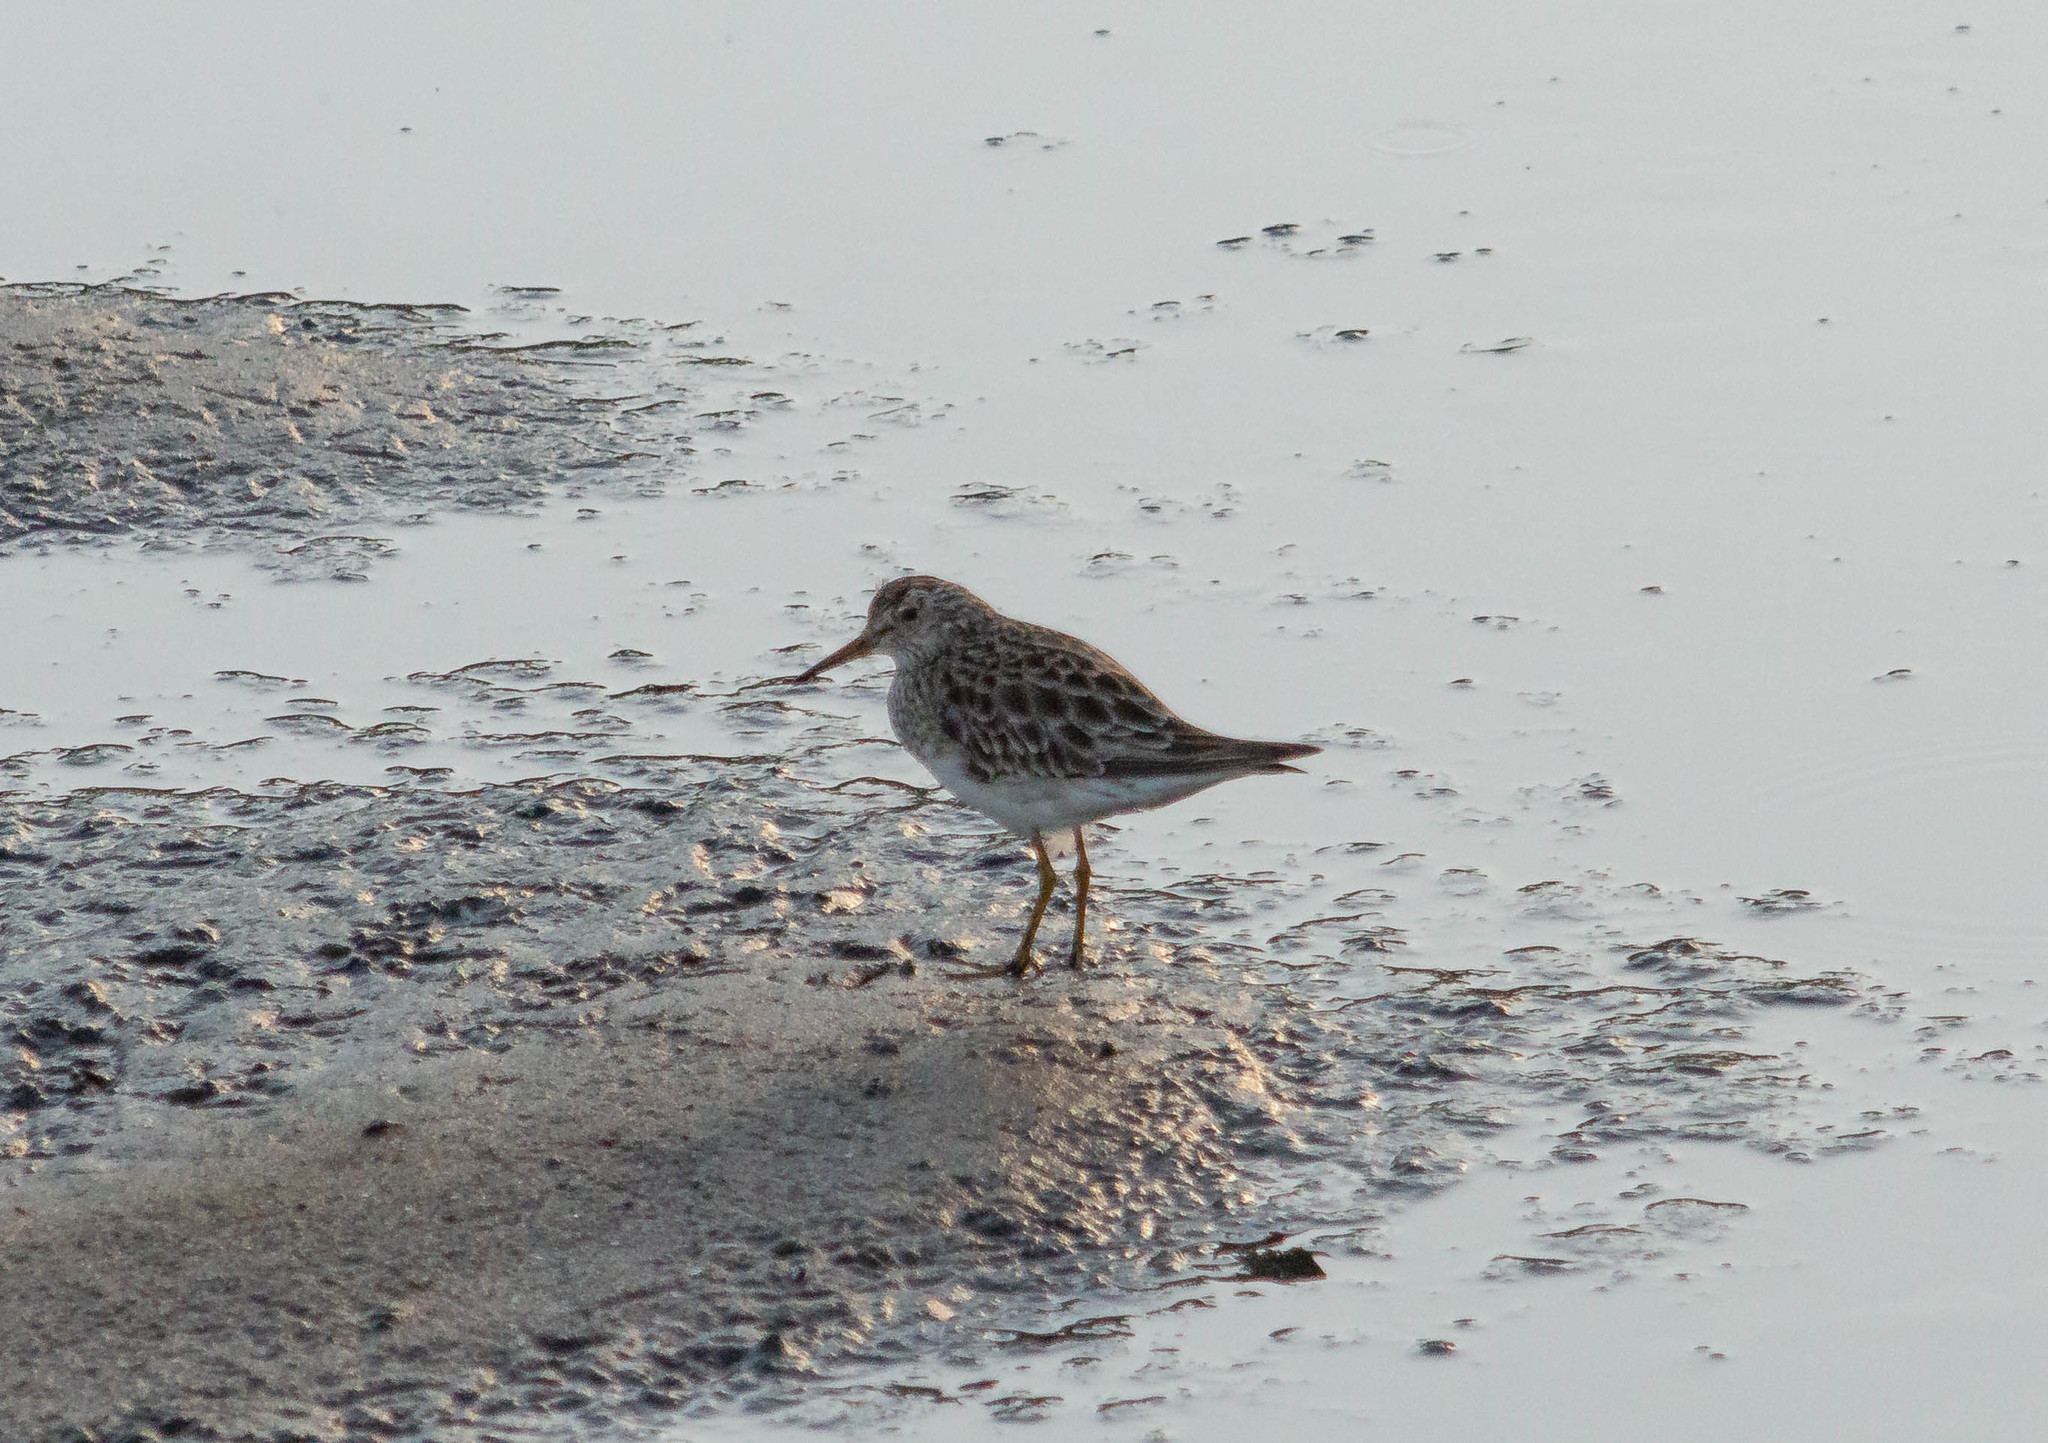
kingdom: Animalia
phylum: Chordata
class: Aves
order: Charadriiformes
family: Scolopacidae
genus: Calidris
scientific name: Calidris melanotos
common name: Pectoral sandpiper
